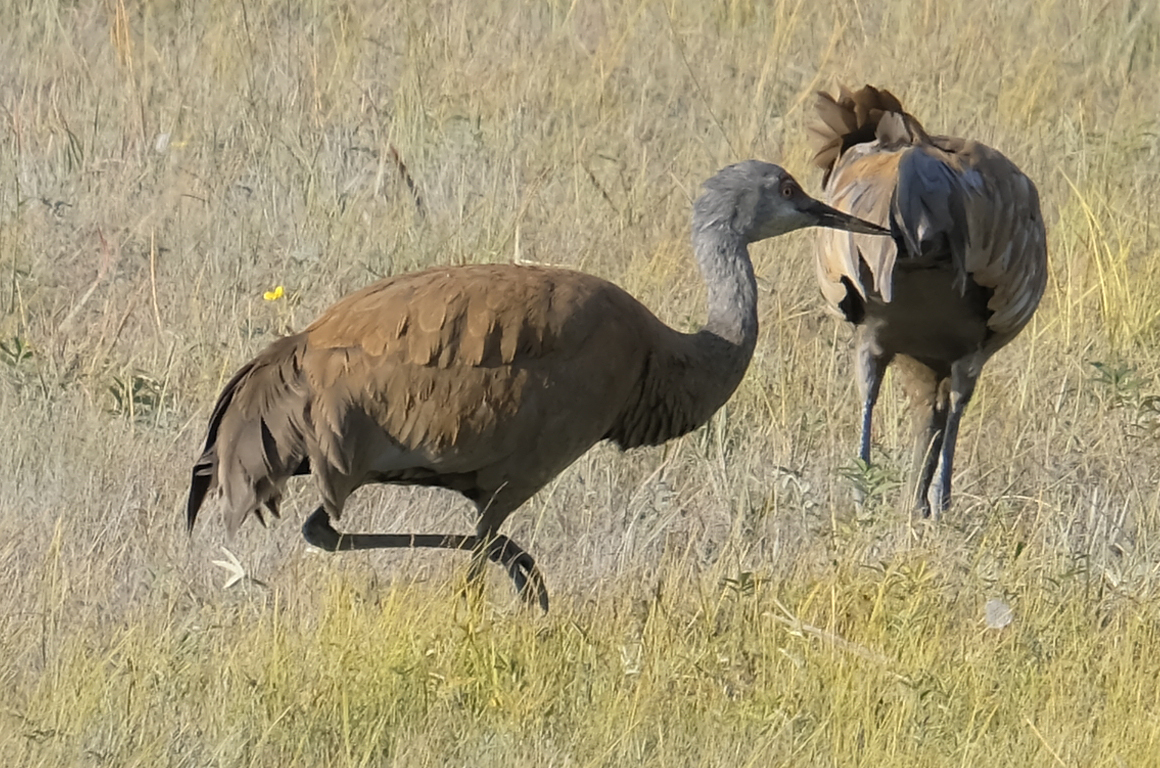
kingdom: Animalia
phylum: Chordata
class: Aves
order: Gruiformes
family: Gruidae
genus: Grus
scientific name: Grus canadensis
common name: Sandhill crane
